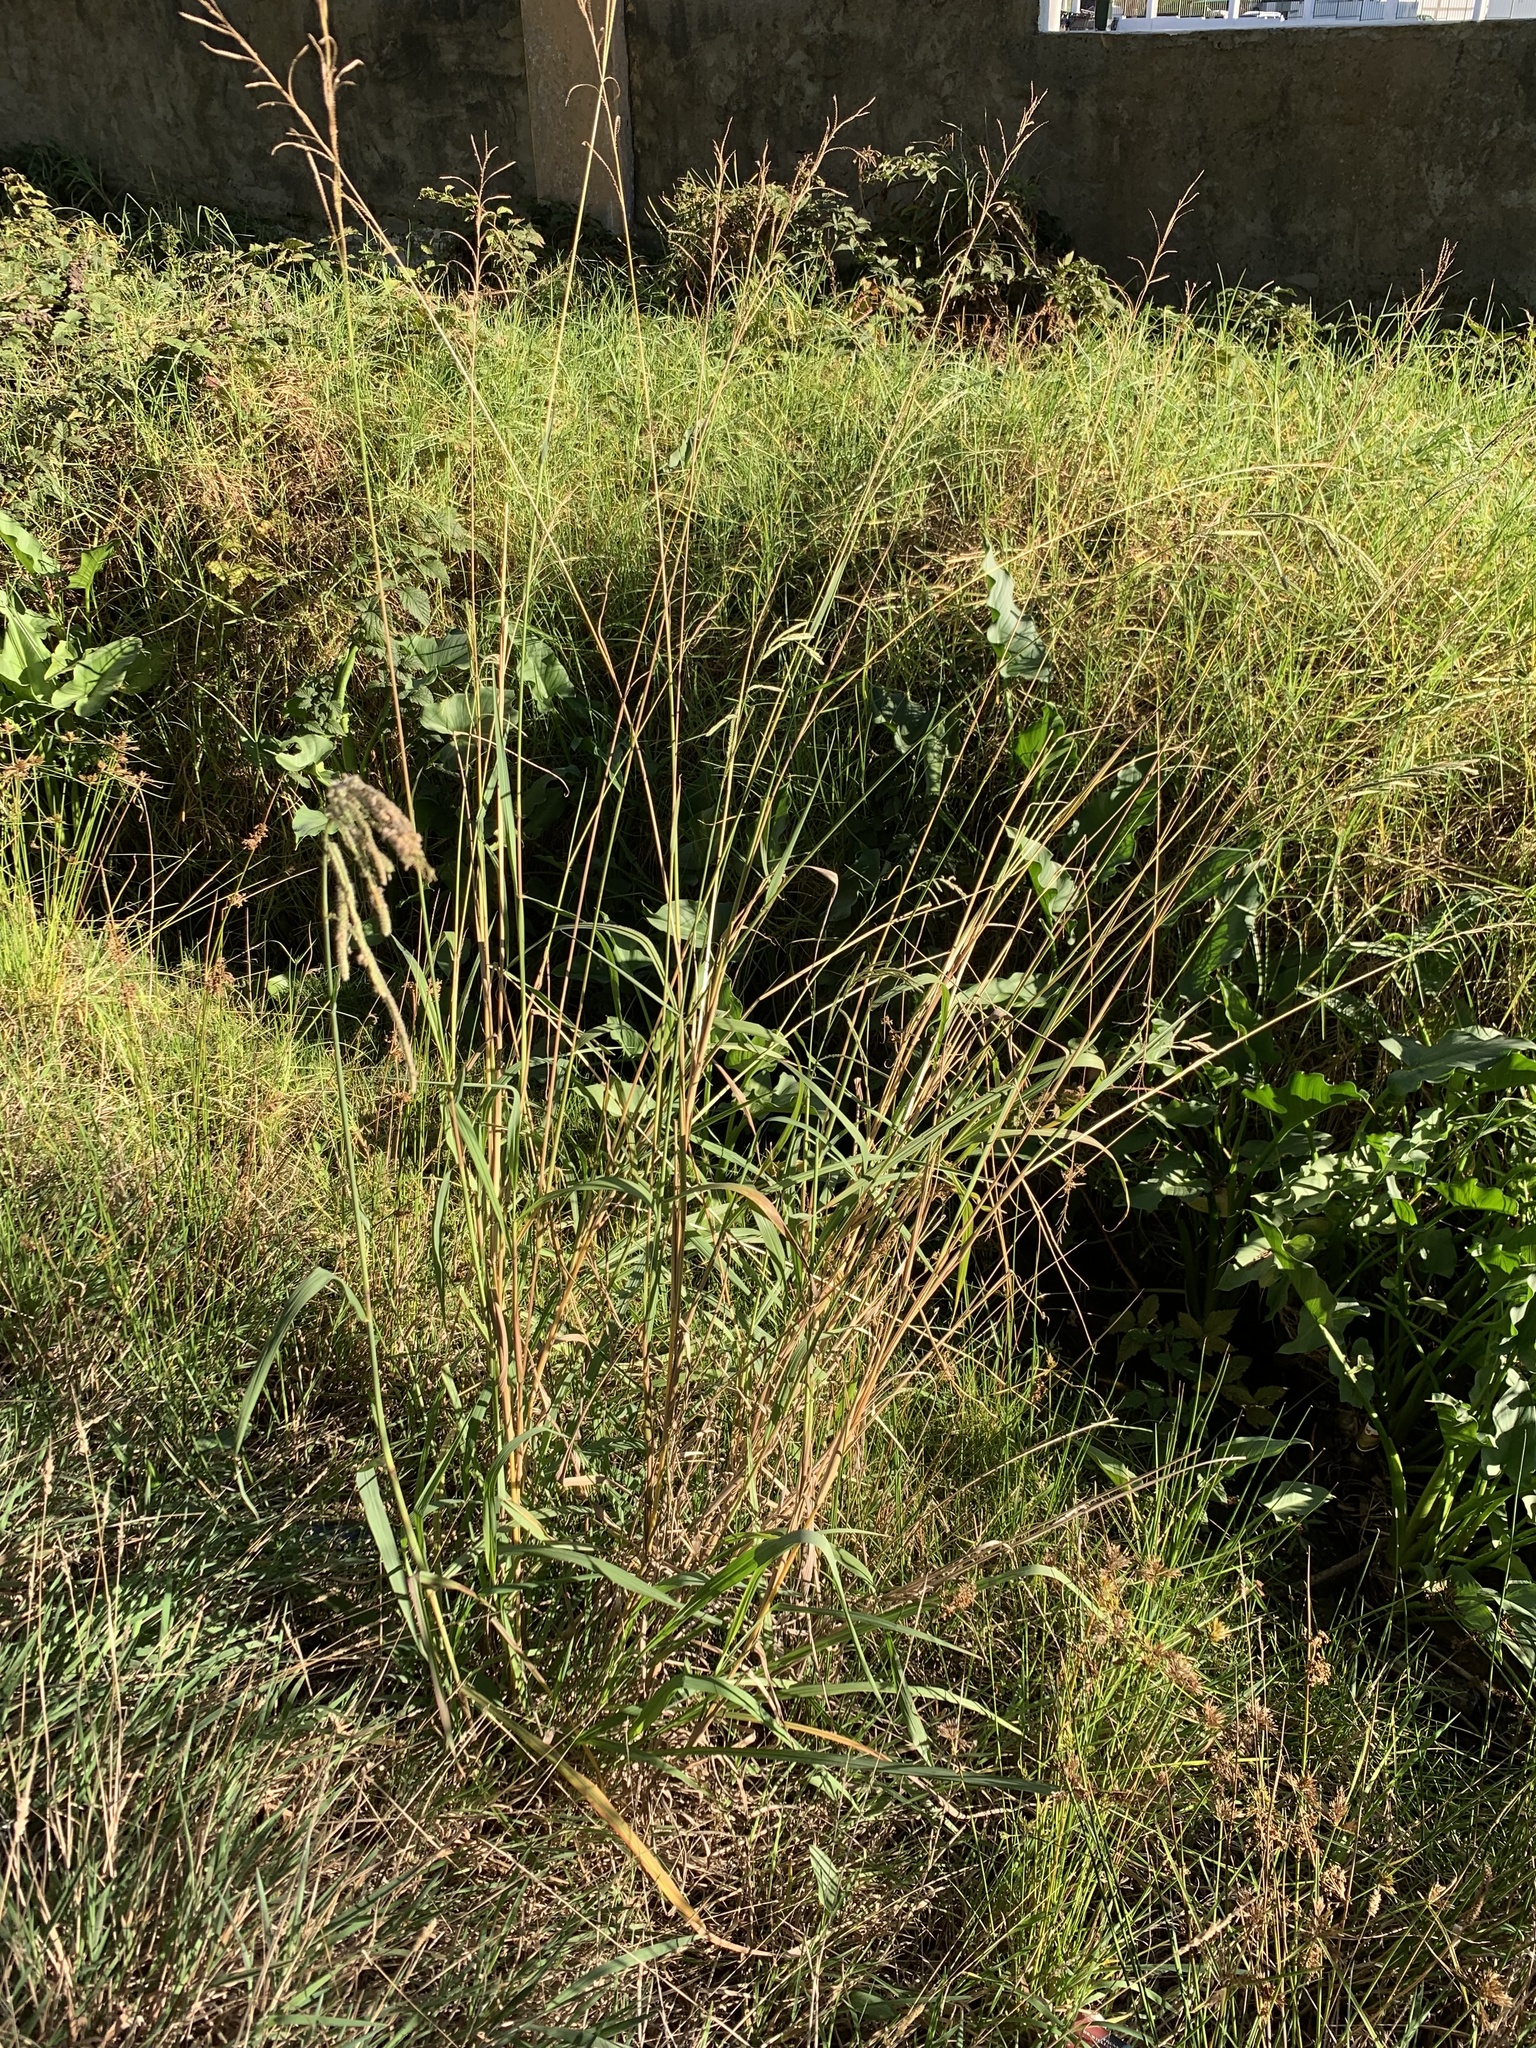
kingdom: Plantae
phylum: Tracheophyta
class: Liliopsida
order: Poales
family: Poaceae
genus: Paspalum
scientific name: Paspalum urvillei
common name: Vasey's grass
